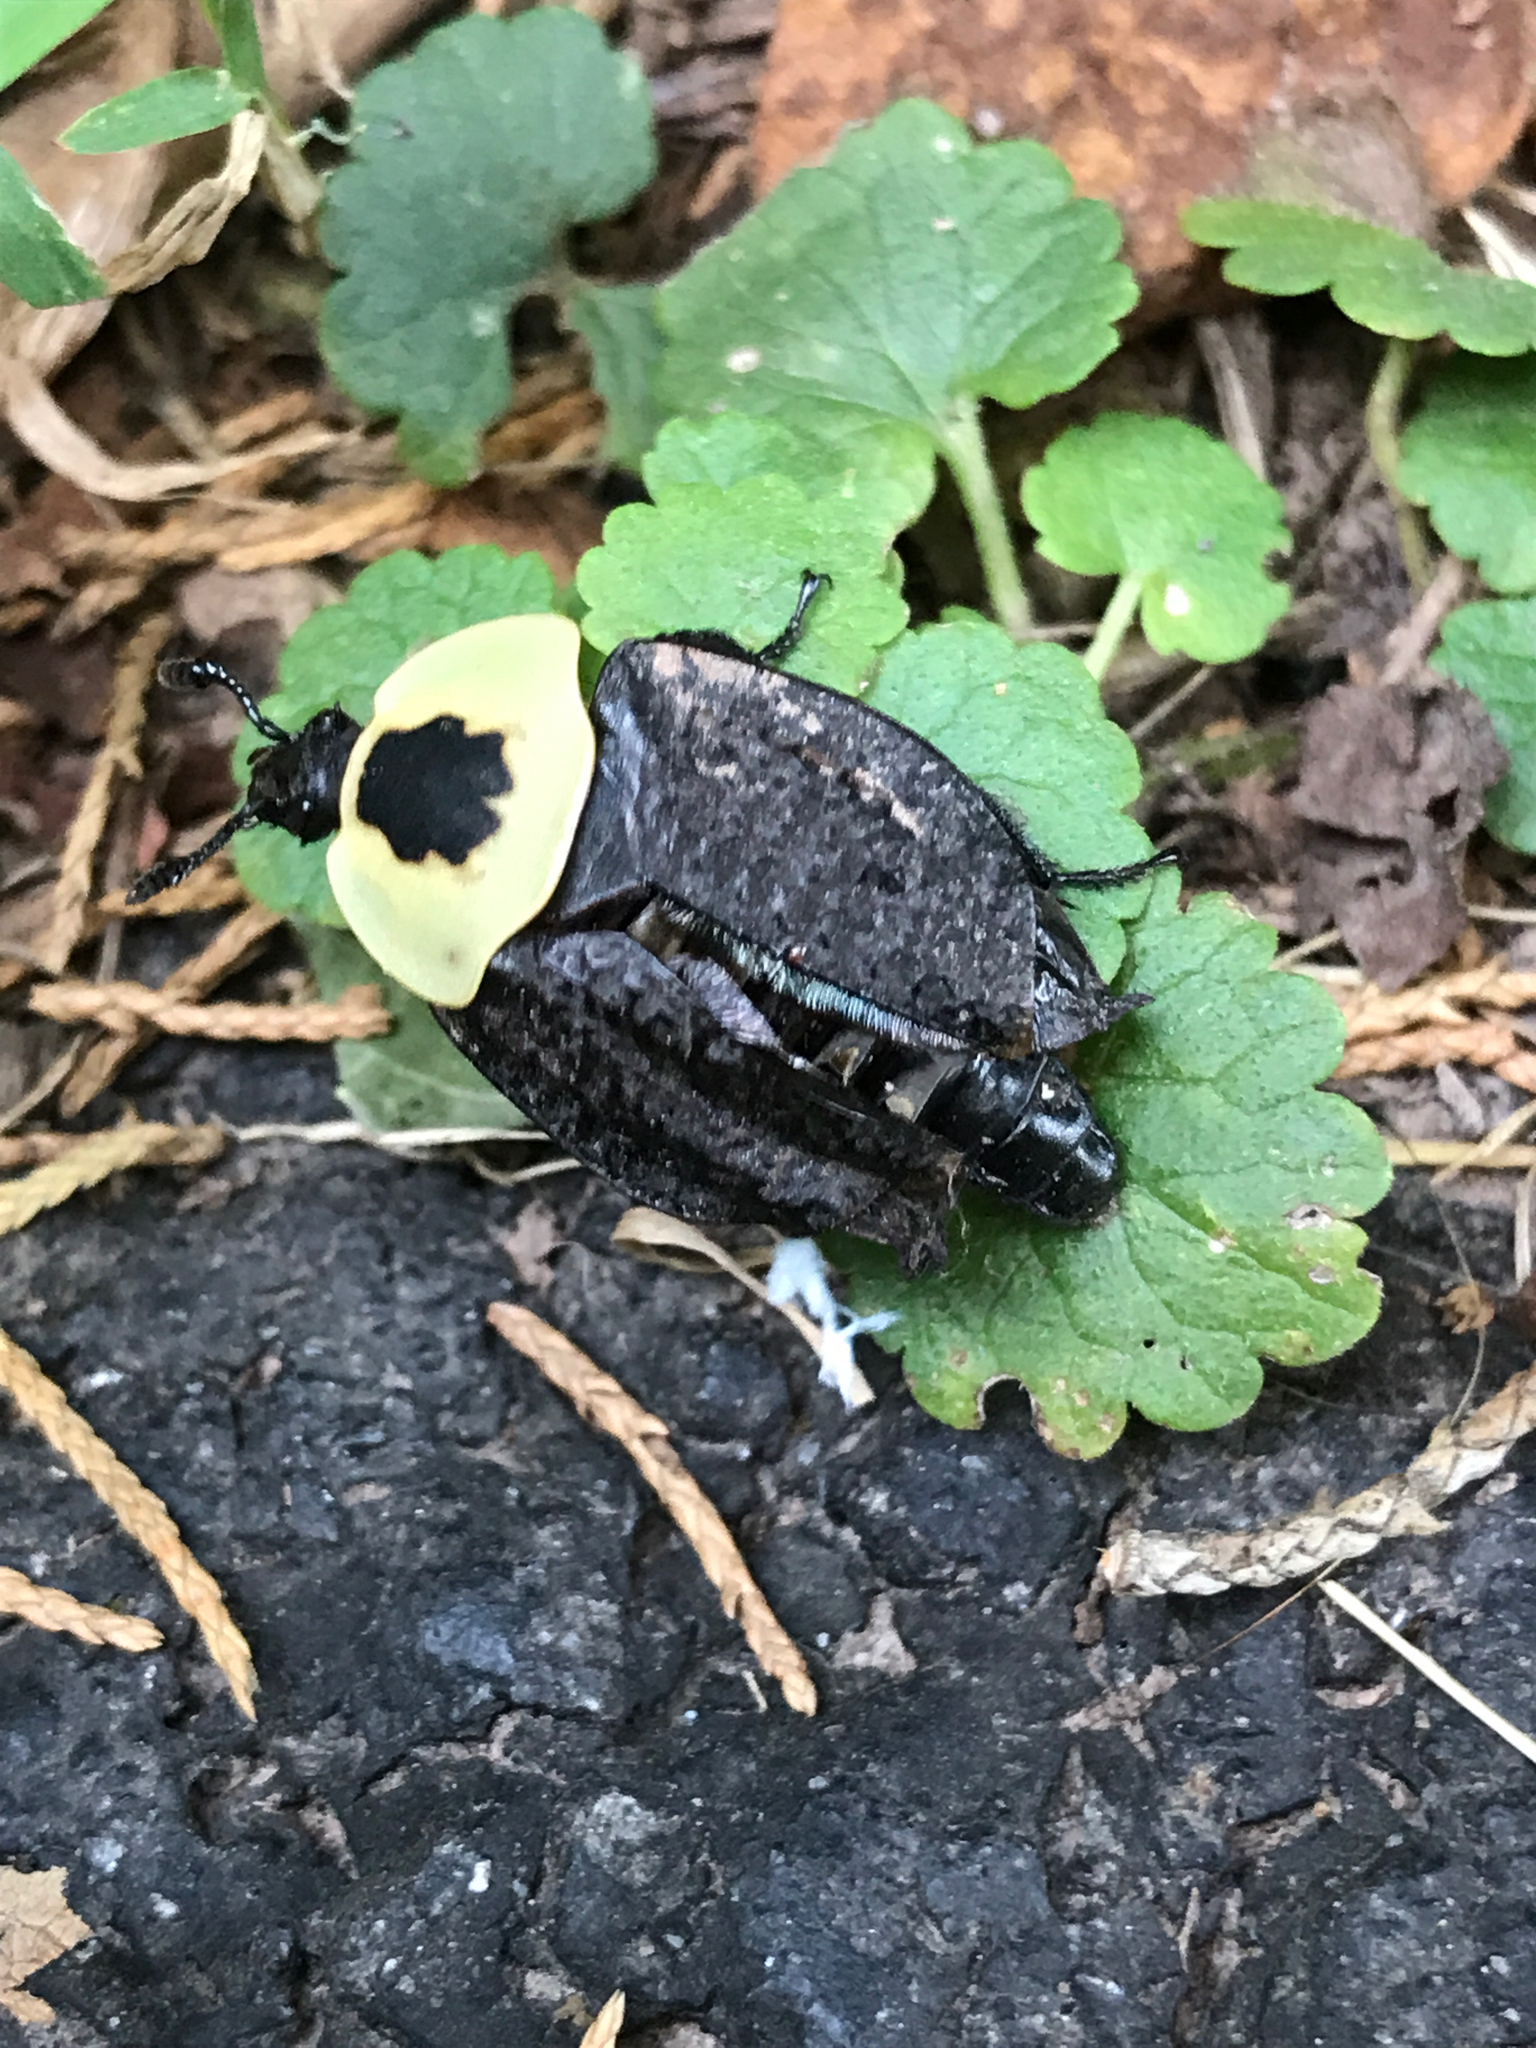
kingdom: Animalia
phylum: Arthropoda
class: Insecta
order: Coleoptera
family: Staphylinidae
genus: Necrophila
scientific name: Necrophila americana
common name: American carrion beetle
